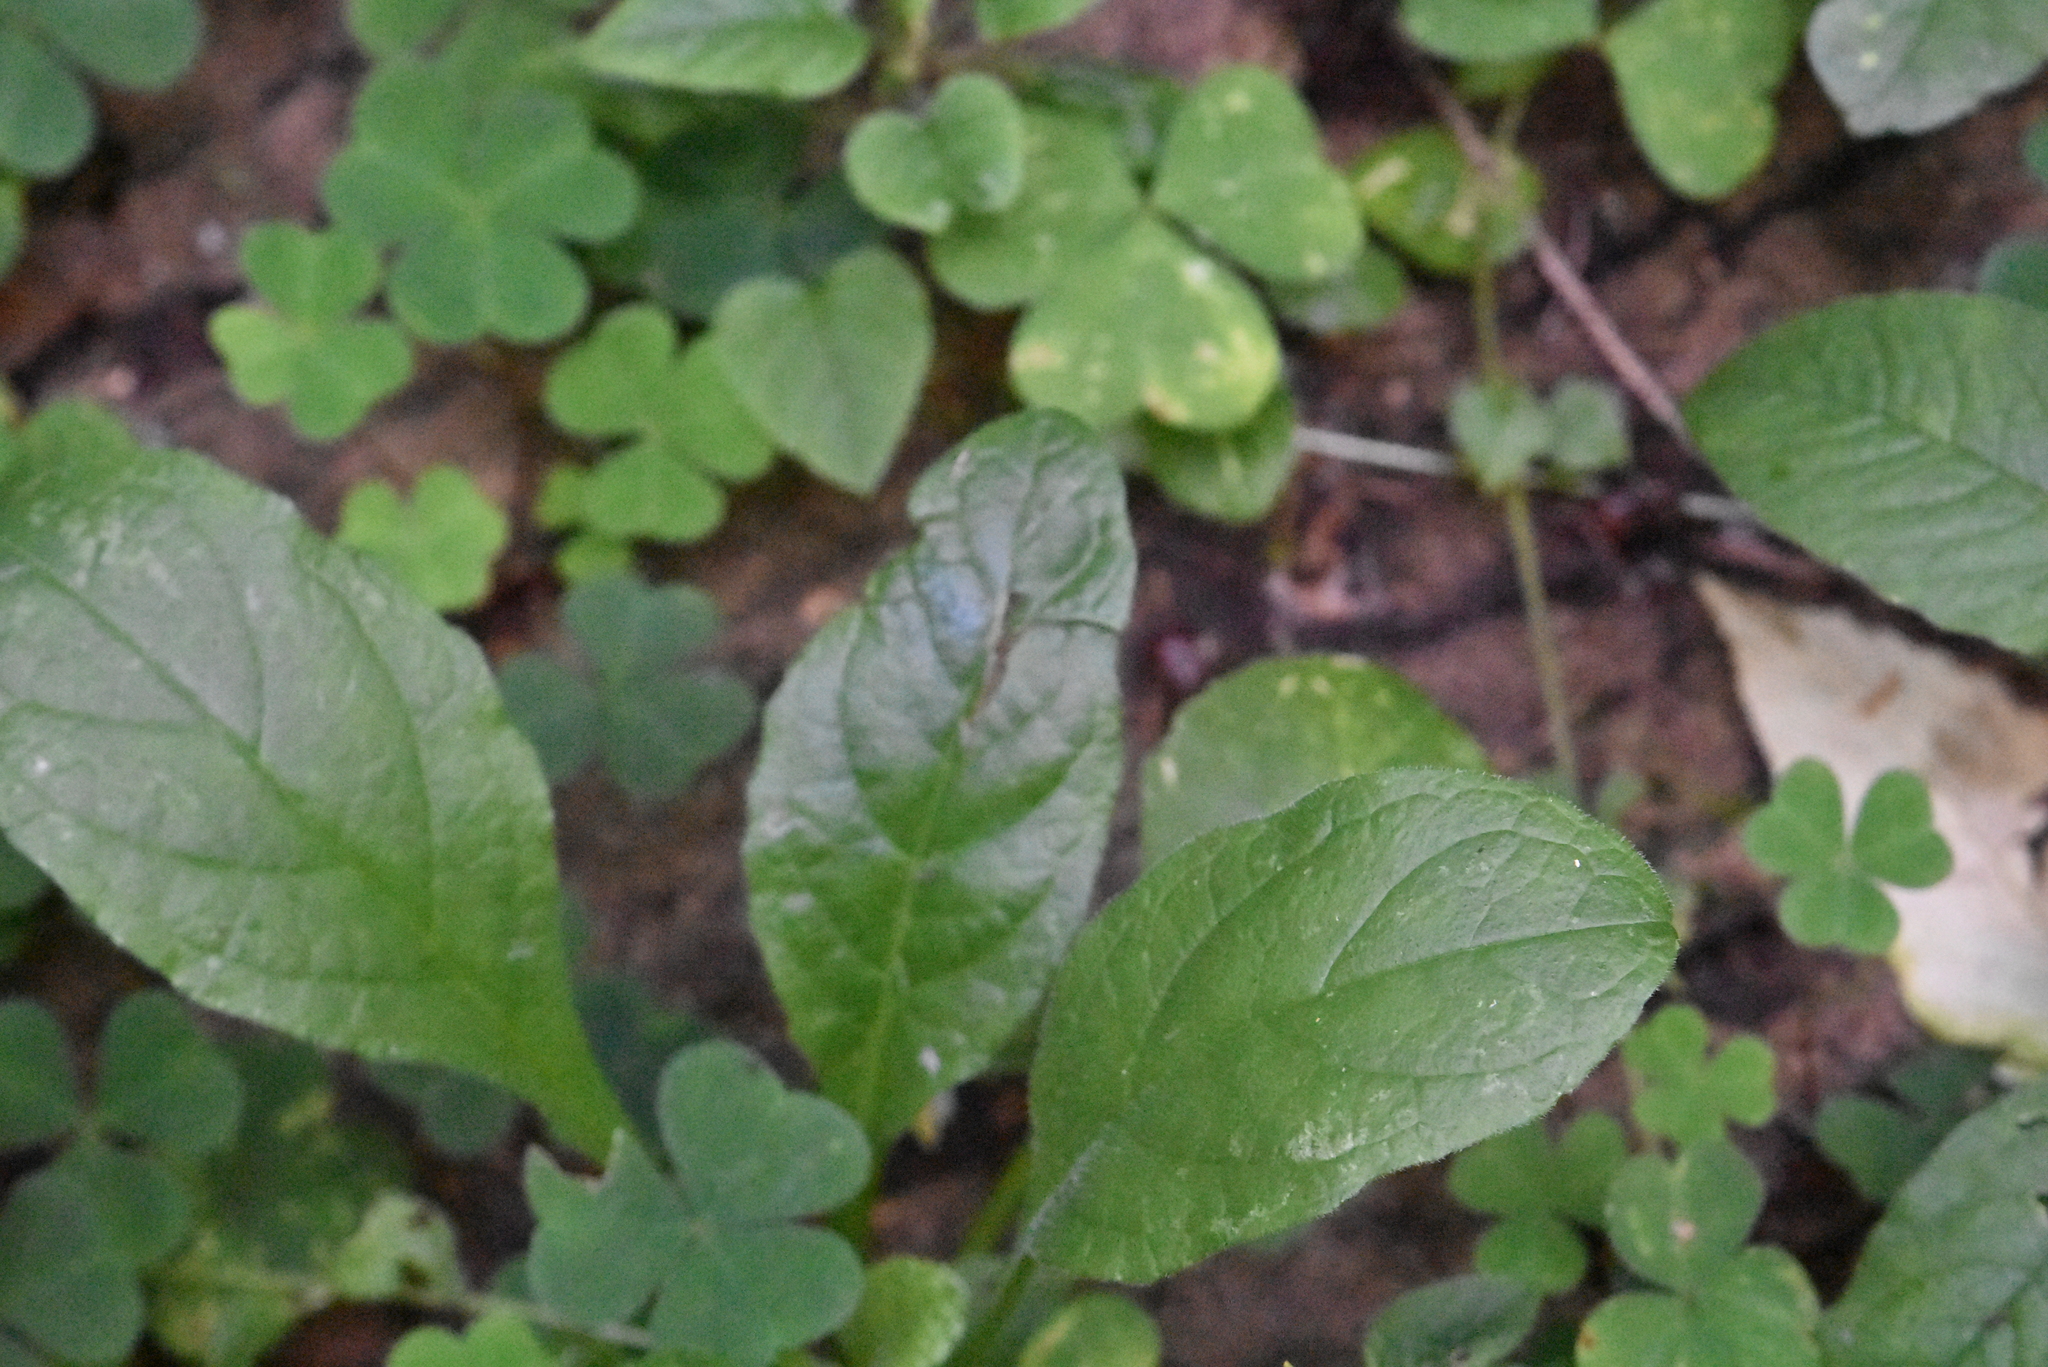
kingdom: Plantae
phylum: Tracheophyta
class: Magnoliopsida
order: Lamiales
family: Lamiaceae
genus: Ajuga
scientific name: Ajuga reptans
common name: Bugle
